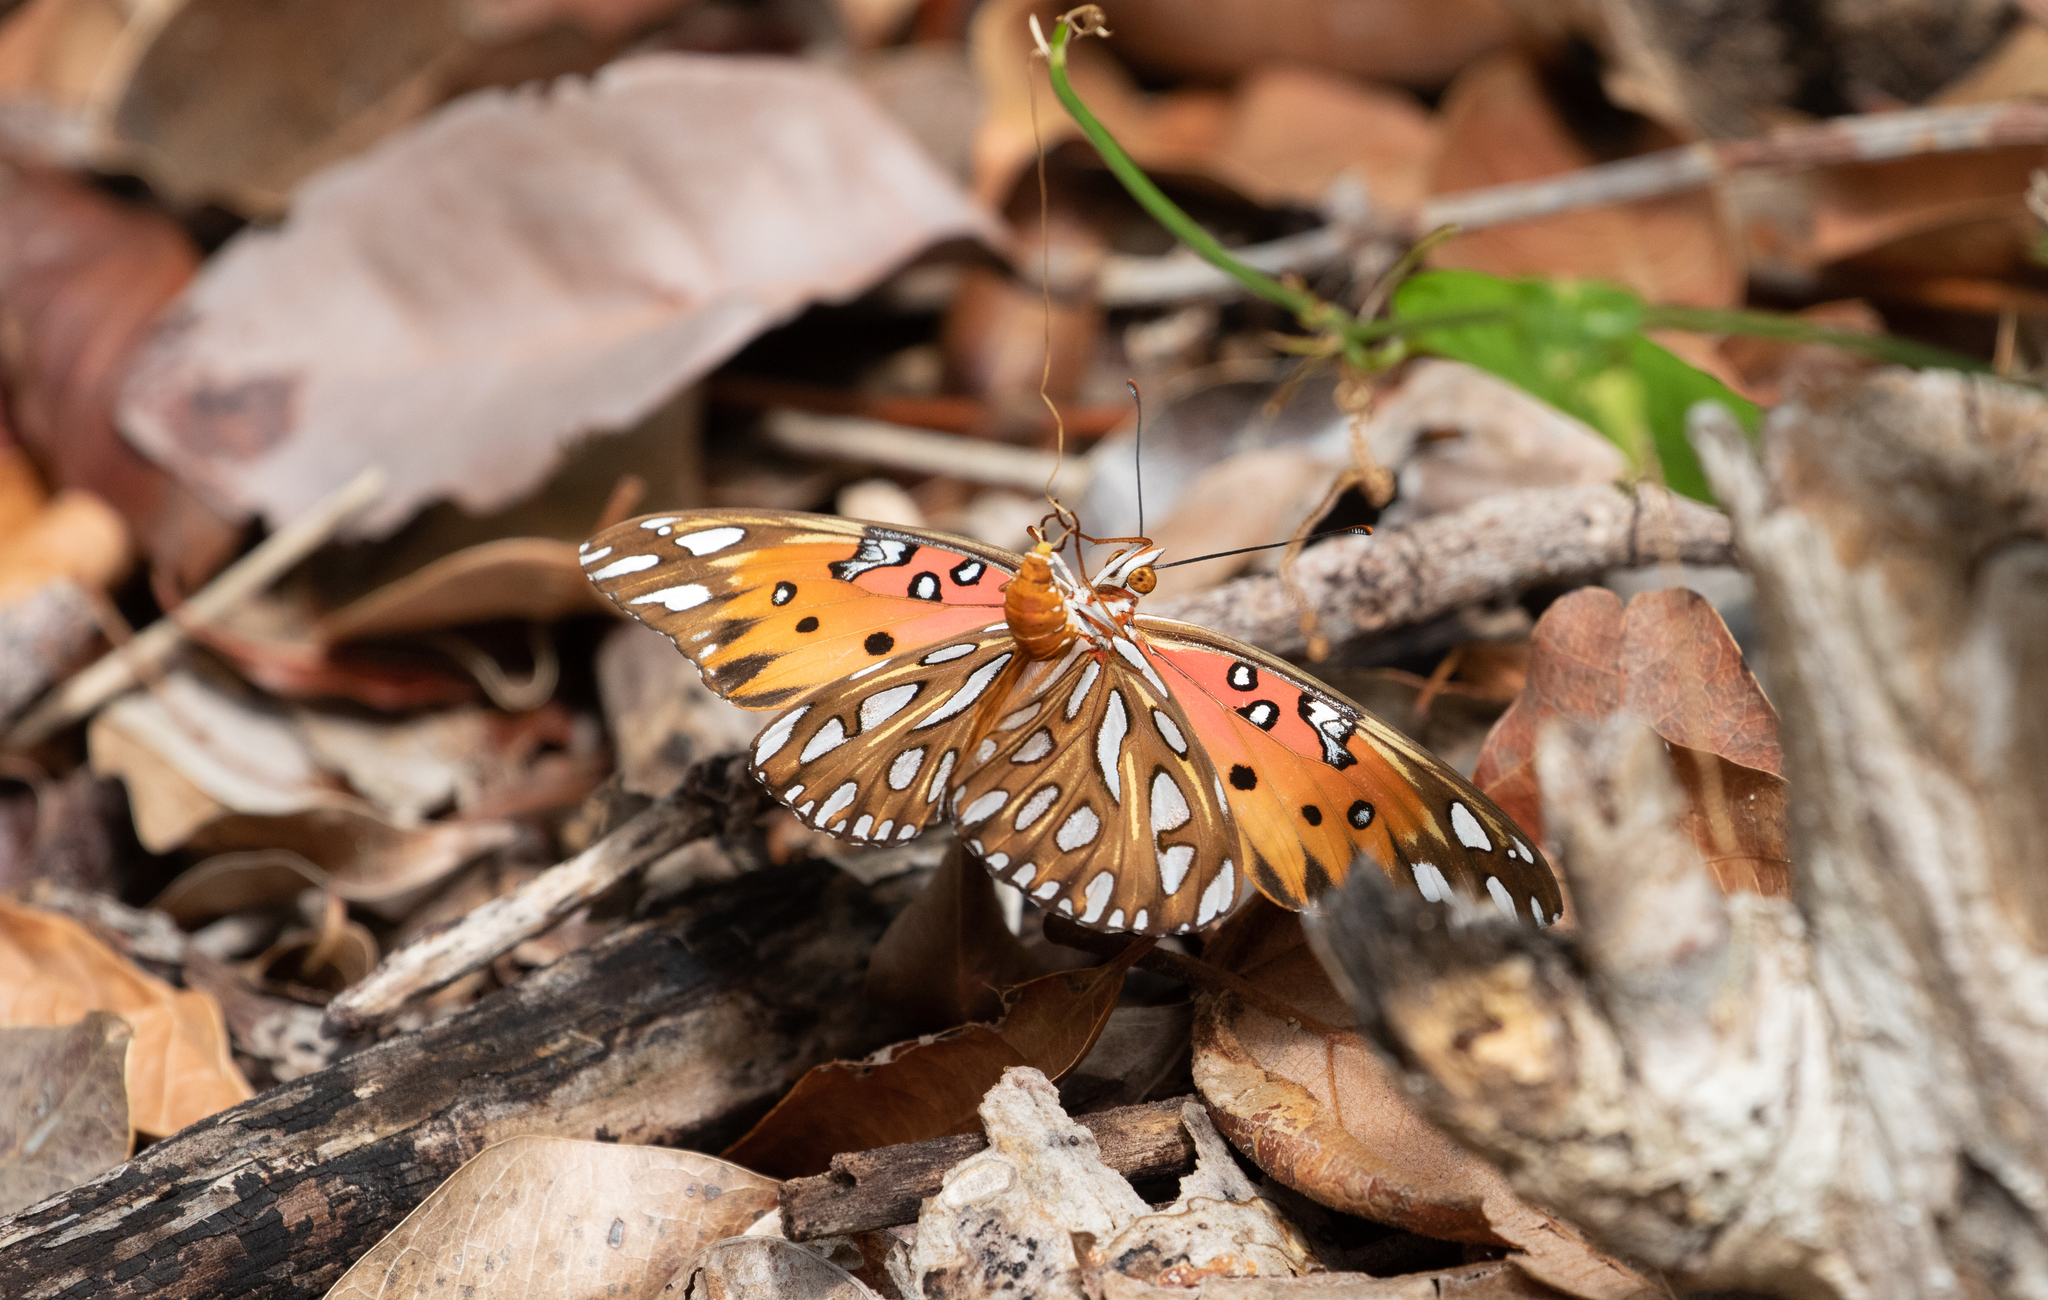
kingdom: Animalia
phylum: Arthropoda
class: Insecta
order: Lepidoptera
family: Nymphalidae
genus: Dione
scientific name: Dione vanillae
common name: Gulf fritillary
